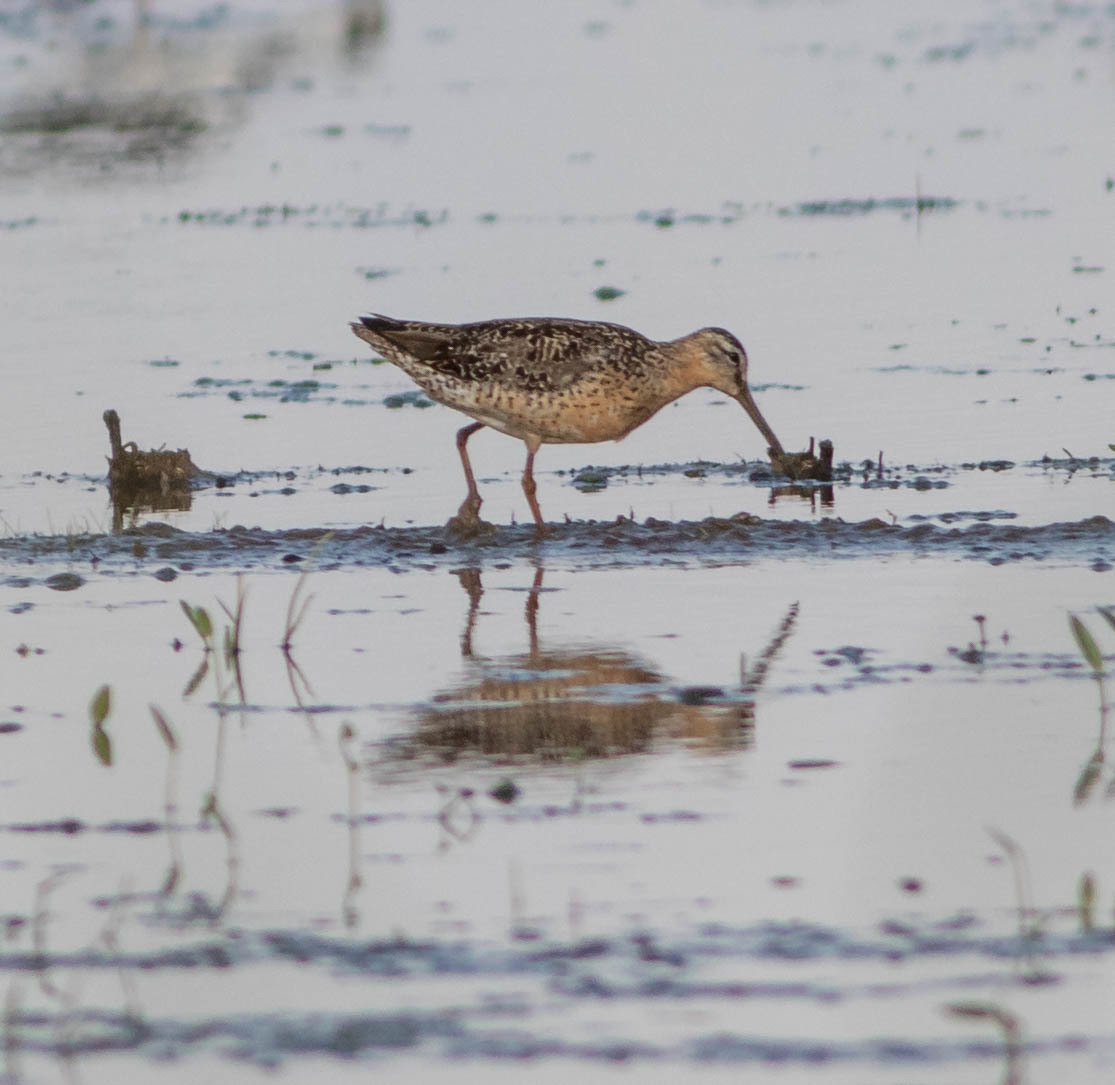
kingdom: Animalia
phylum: Chordata
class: Aves
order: Charadriiformes
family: Scolopacidae
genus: Limnodromus
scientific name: Limnodromus griseus
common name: Short-billed dowitcher
